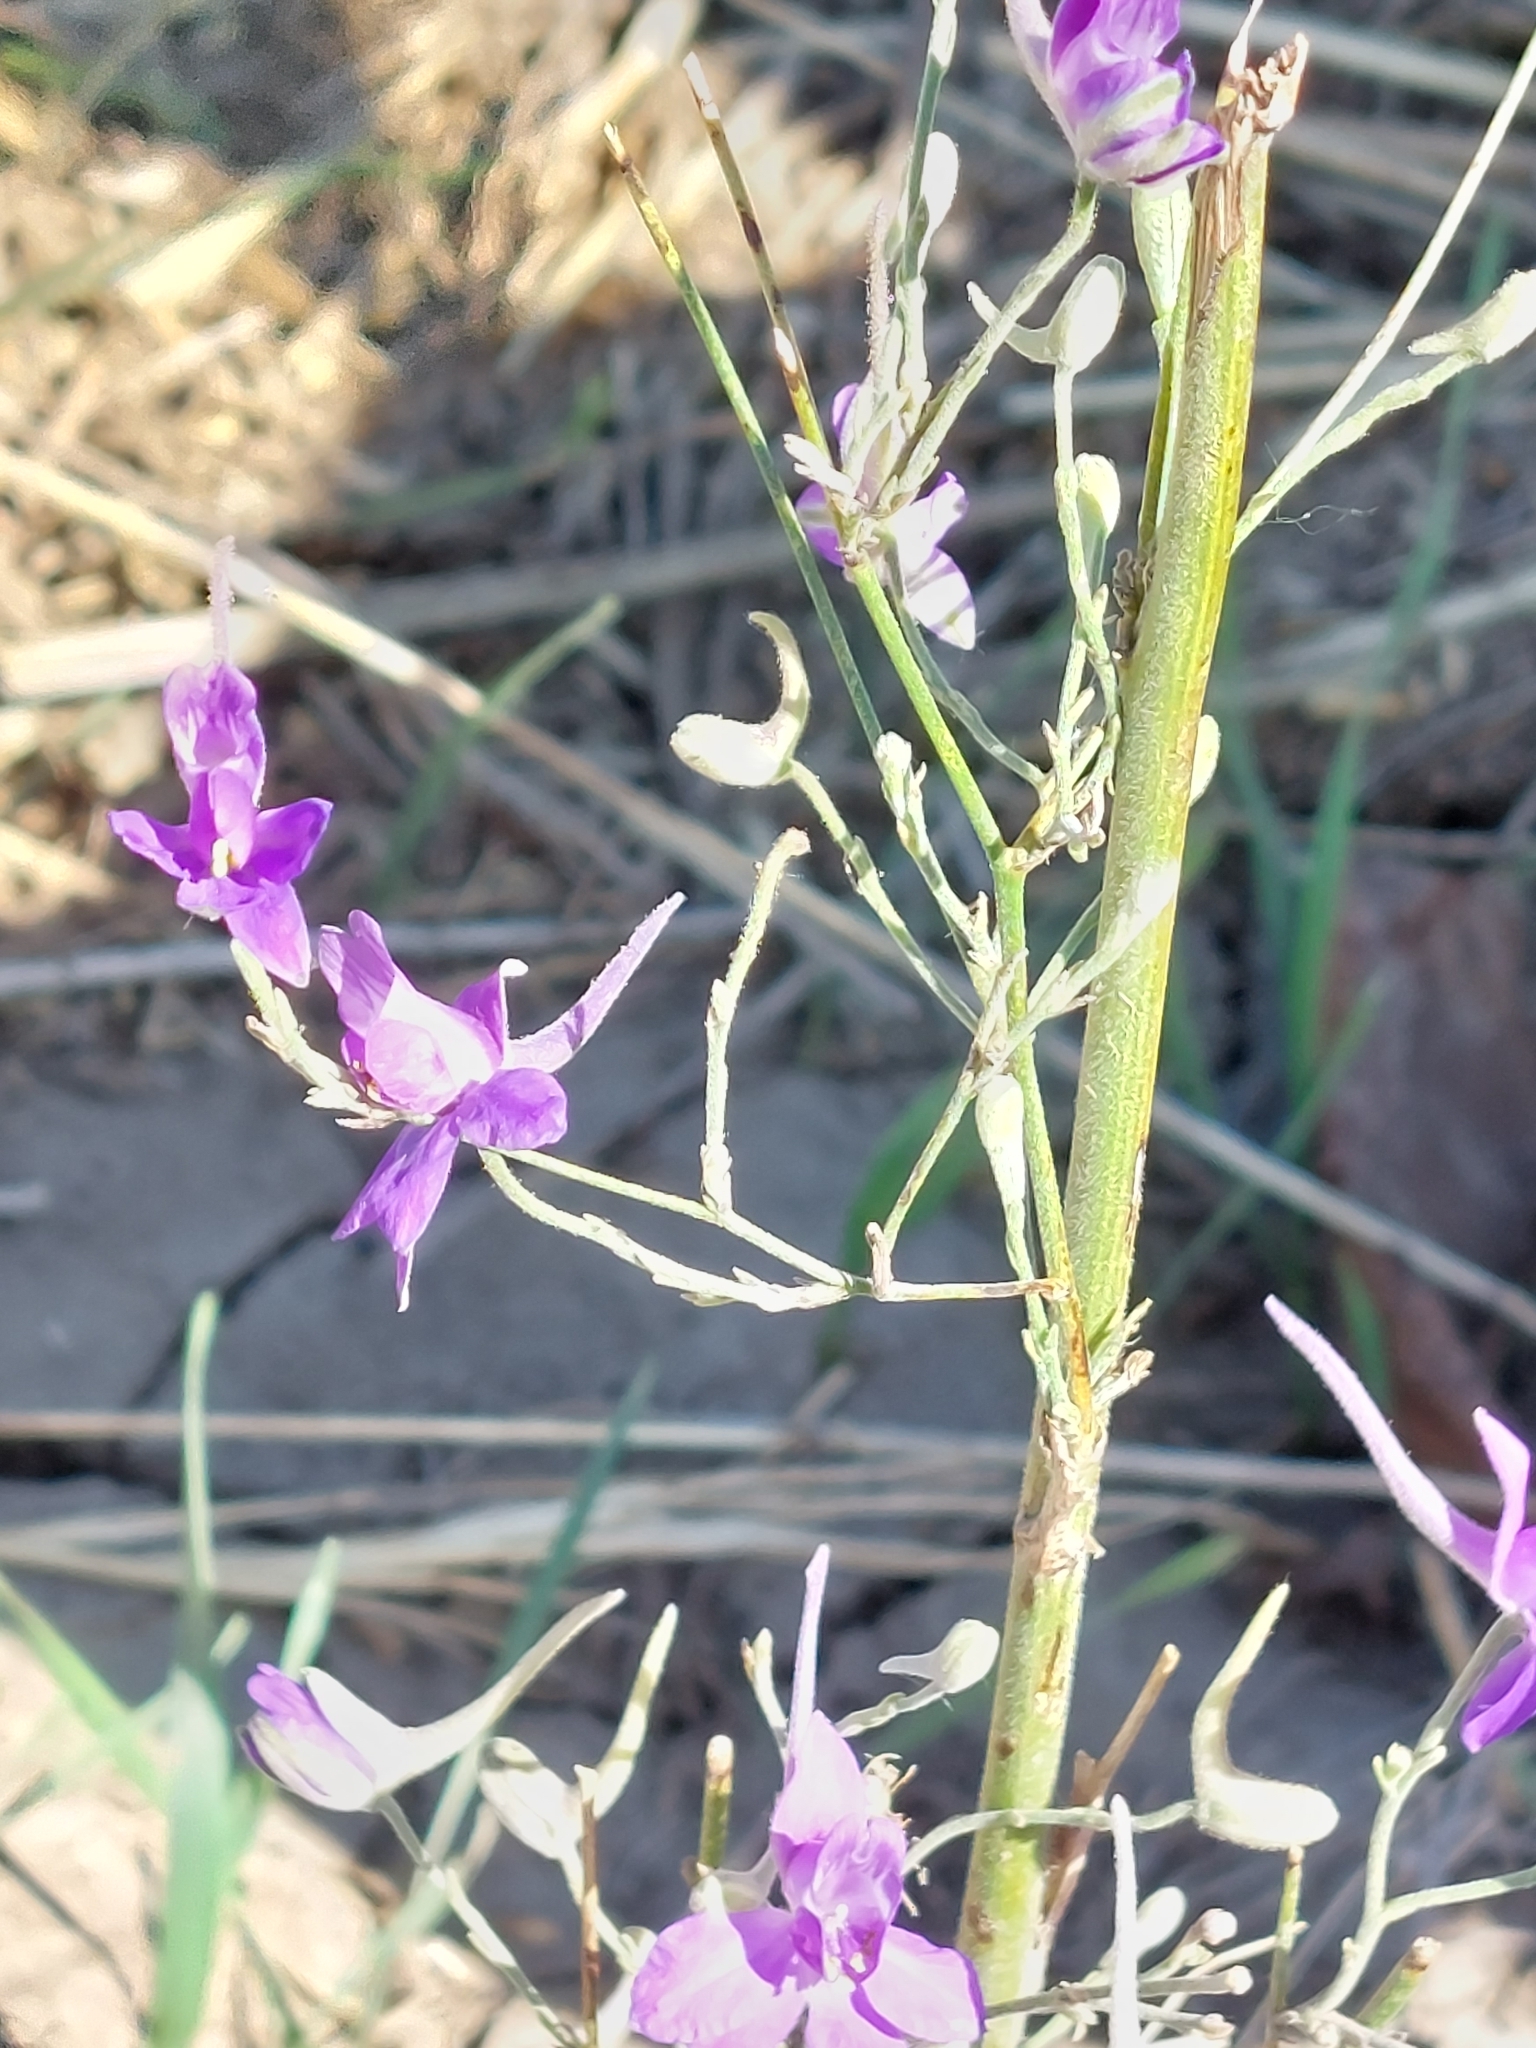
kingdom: Plantae
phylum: Tracheophyta
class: Magnoliopsida
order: Ranunculales
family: Ranunculaceae
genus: Delphinium
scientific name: Delphinium consolida
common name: Branching larkspur
